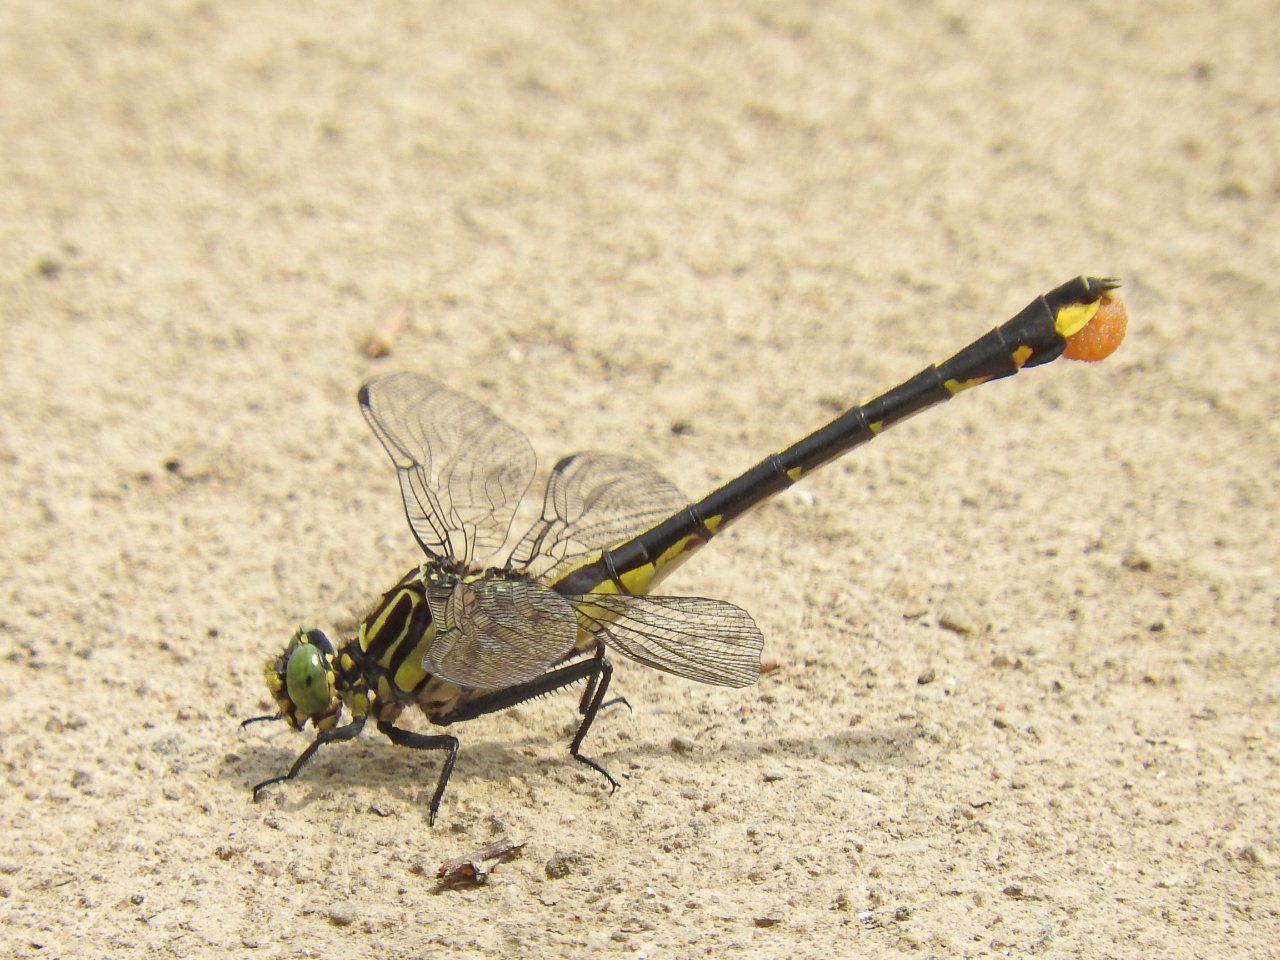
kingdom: Animalia
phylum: Arthropoda
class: Insecta
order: Odonata
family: Gomphidae
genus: Gomphurus
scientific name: Gomphurus vastus
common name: Cobra clubtail
